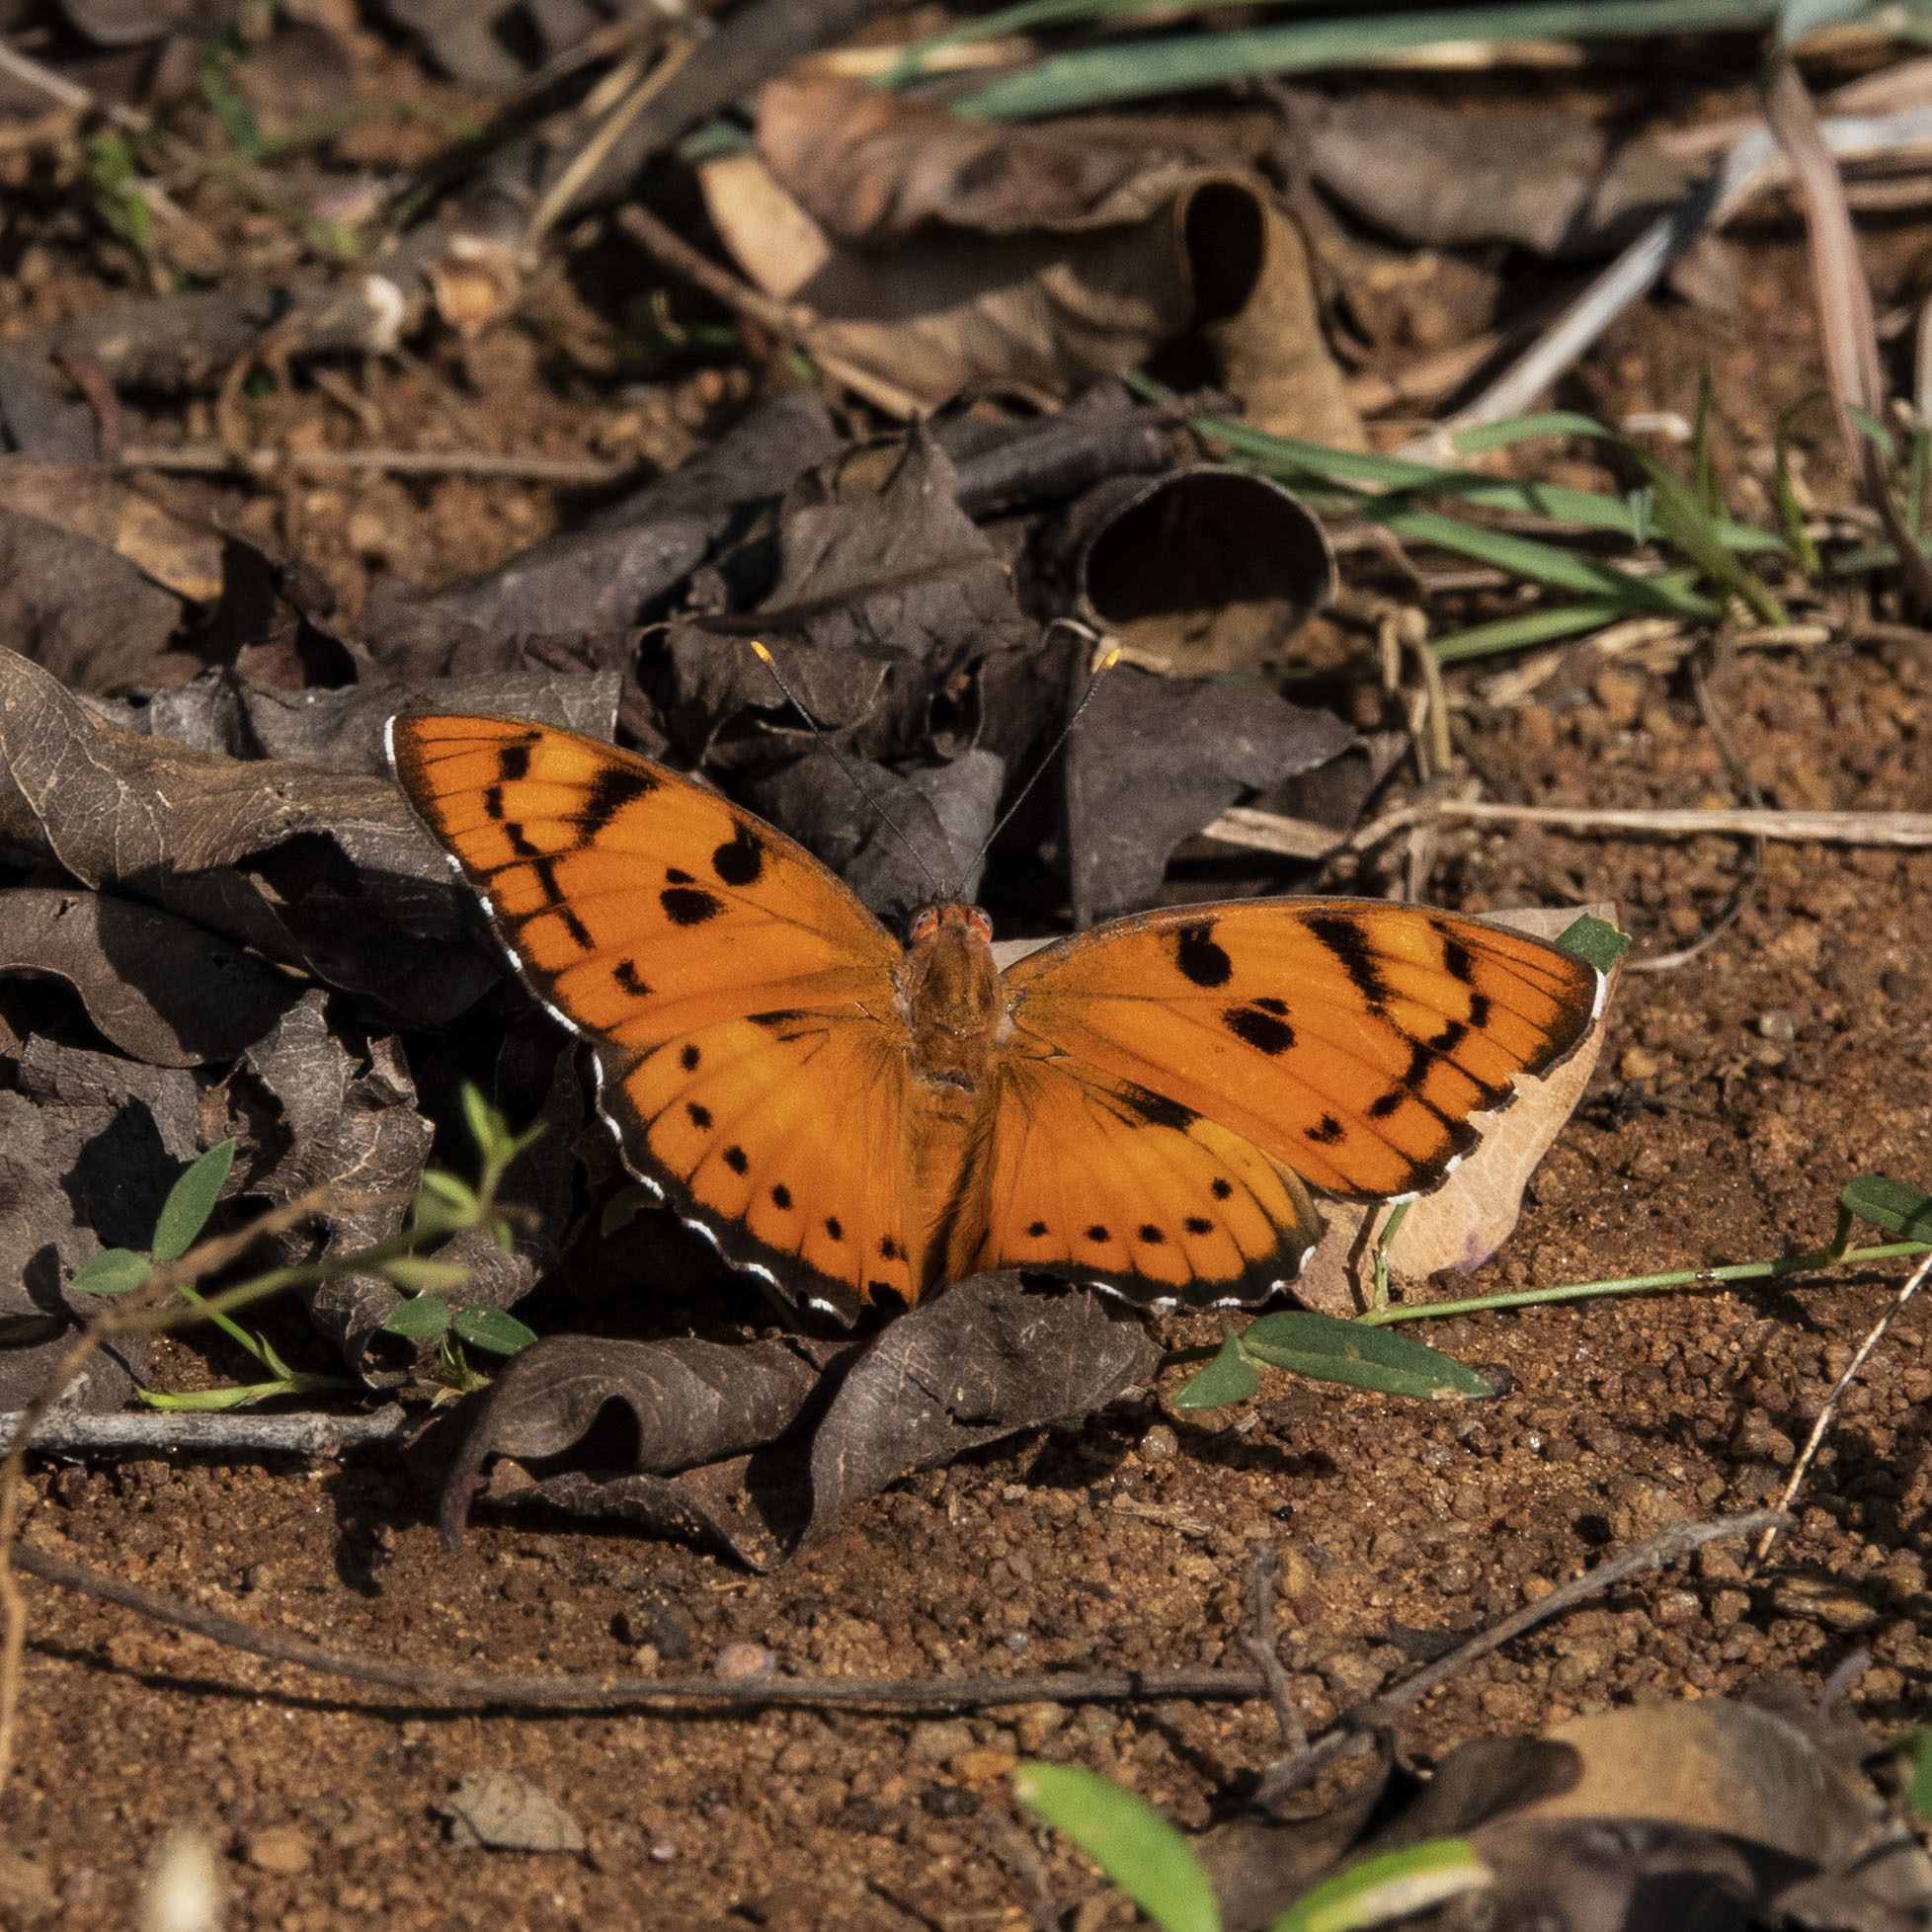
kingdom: Animalia
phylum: Arthropoda
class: Insecta
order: Lepidoptera
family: Nymphalidae
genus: Euthalia
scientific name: Euthalia nais
